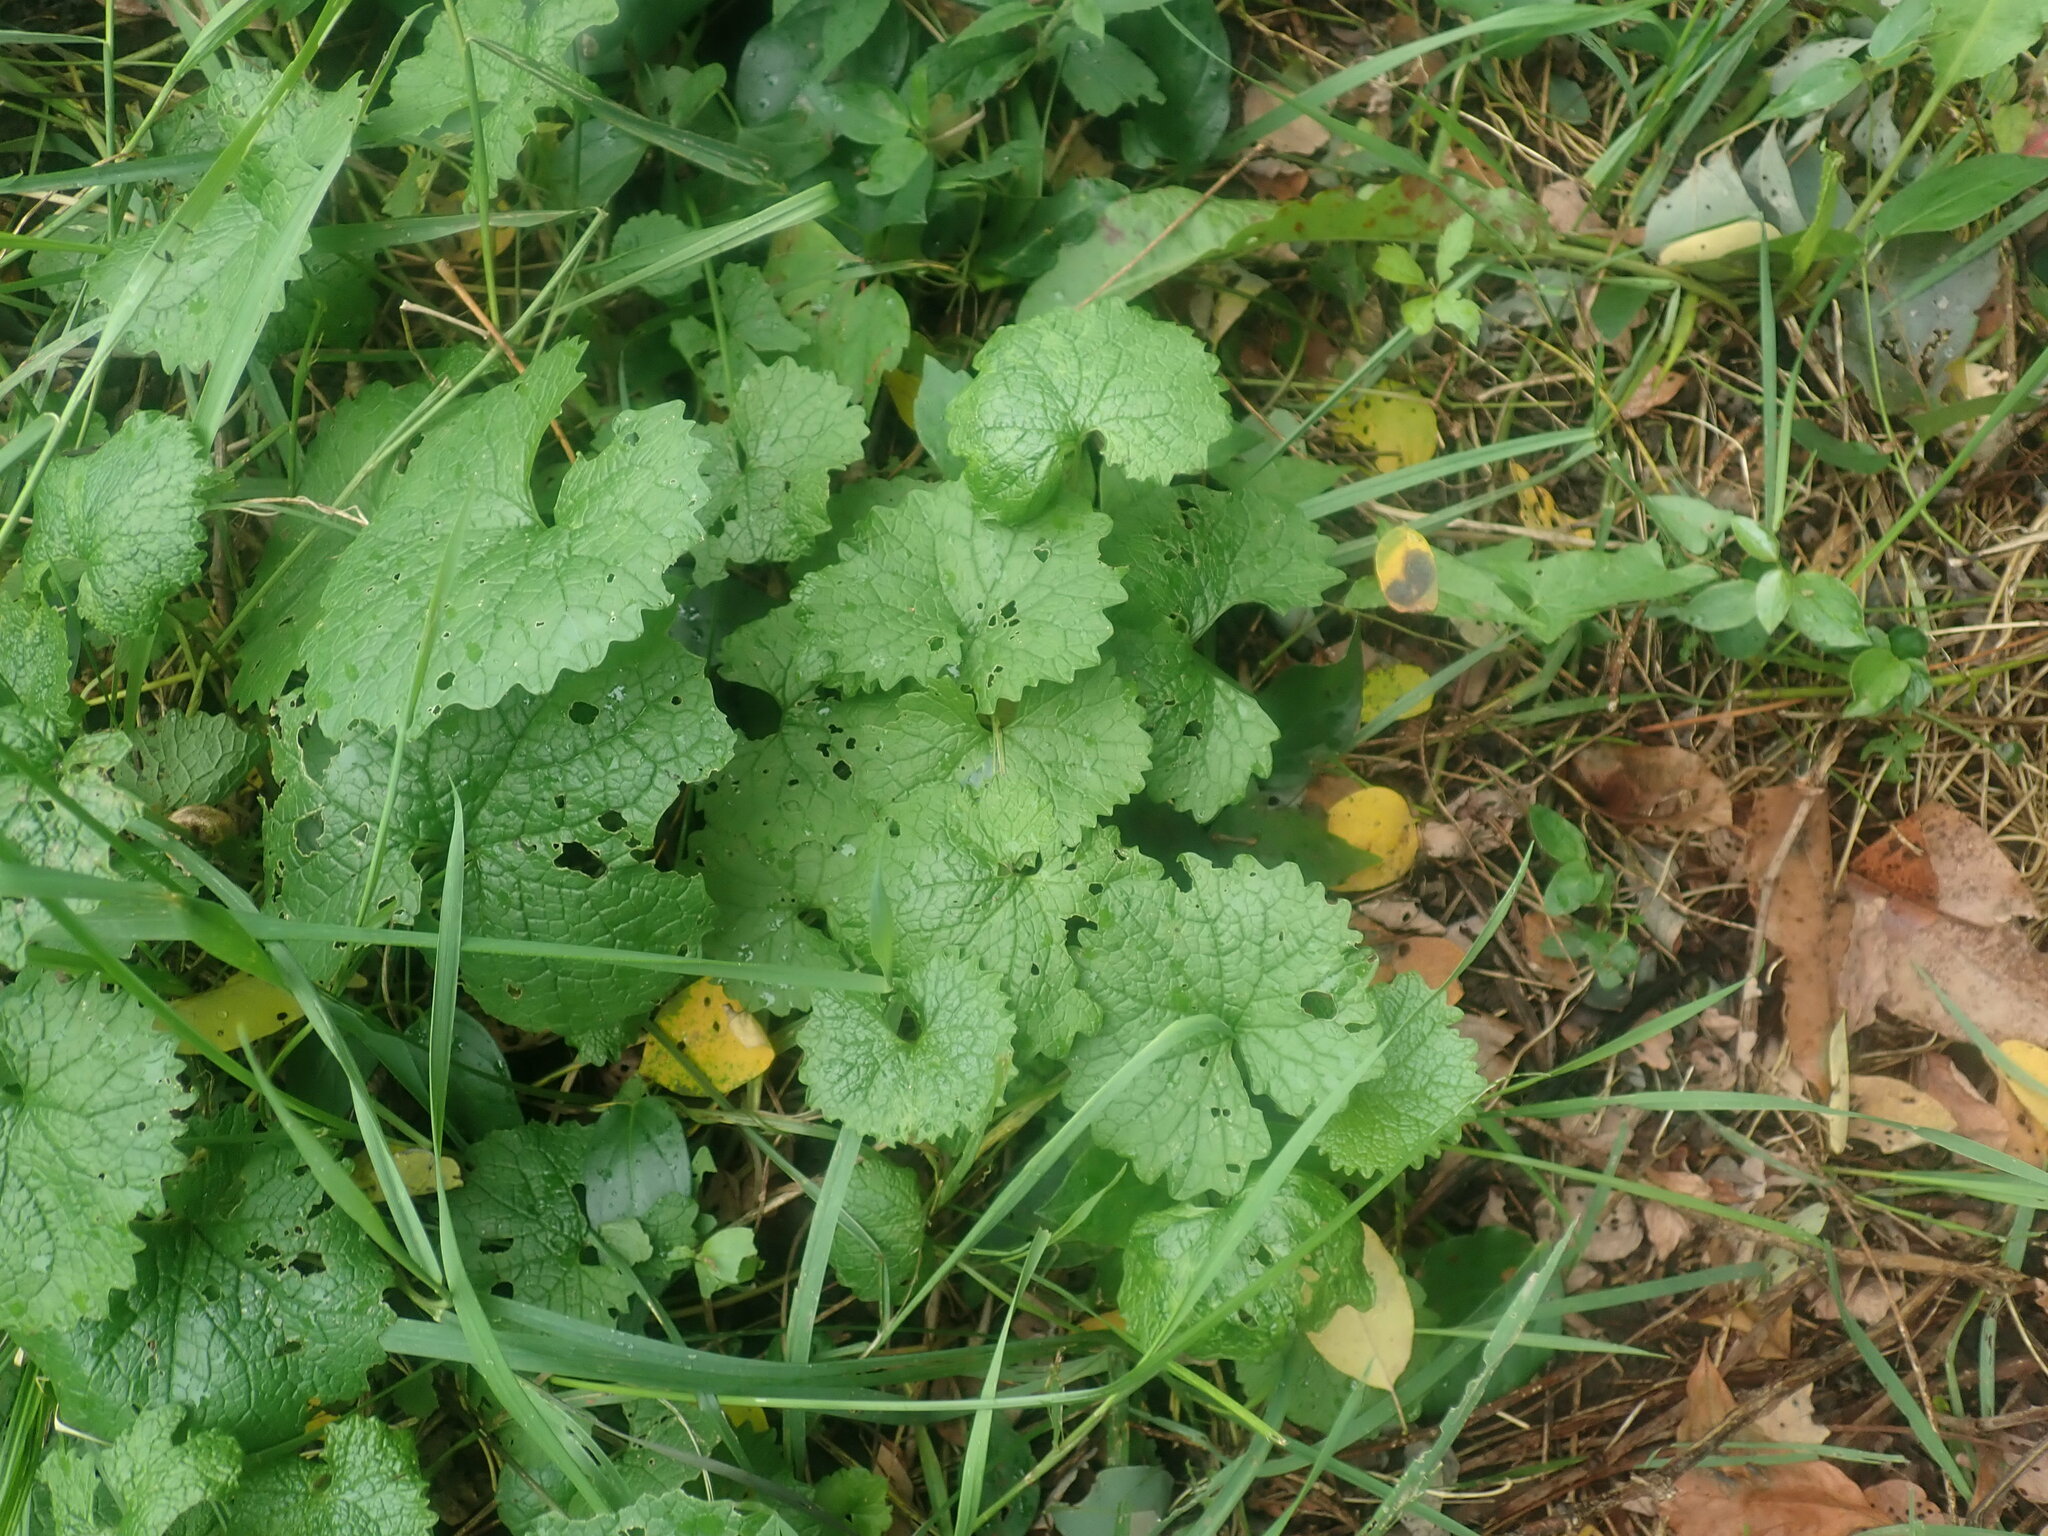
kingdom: Plantae
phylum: Tracheophyta
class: Magnoliopsida
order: Brassicales
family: Brassicaceae
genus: Alliaria
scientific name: Alliaria petiolata
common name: Garlic mustard
